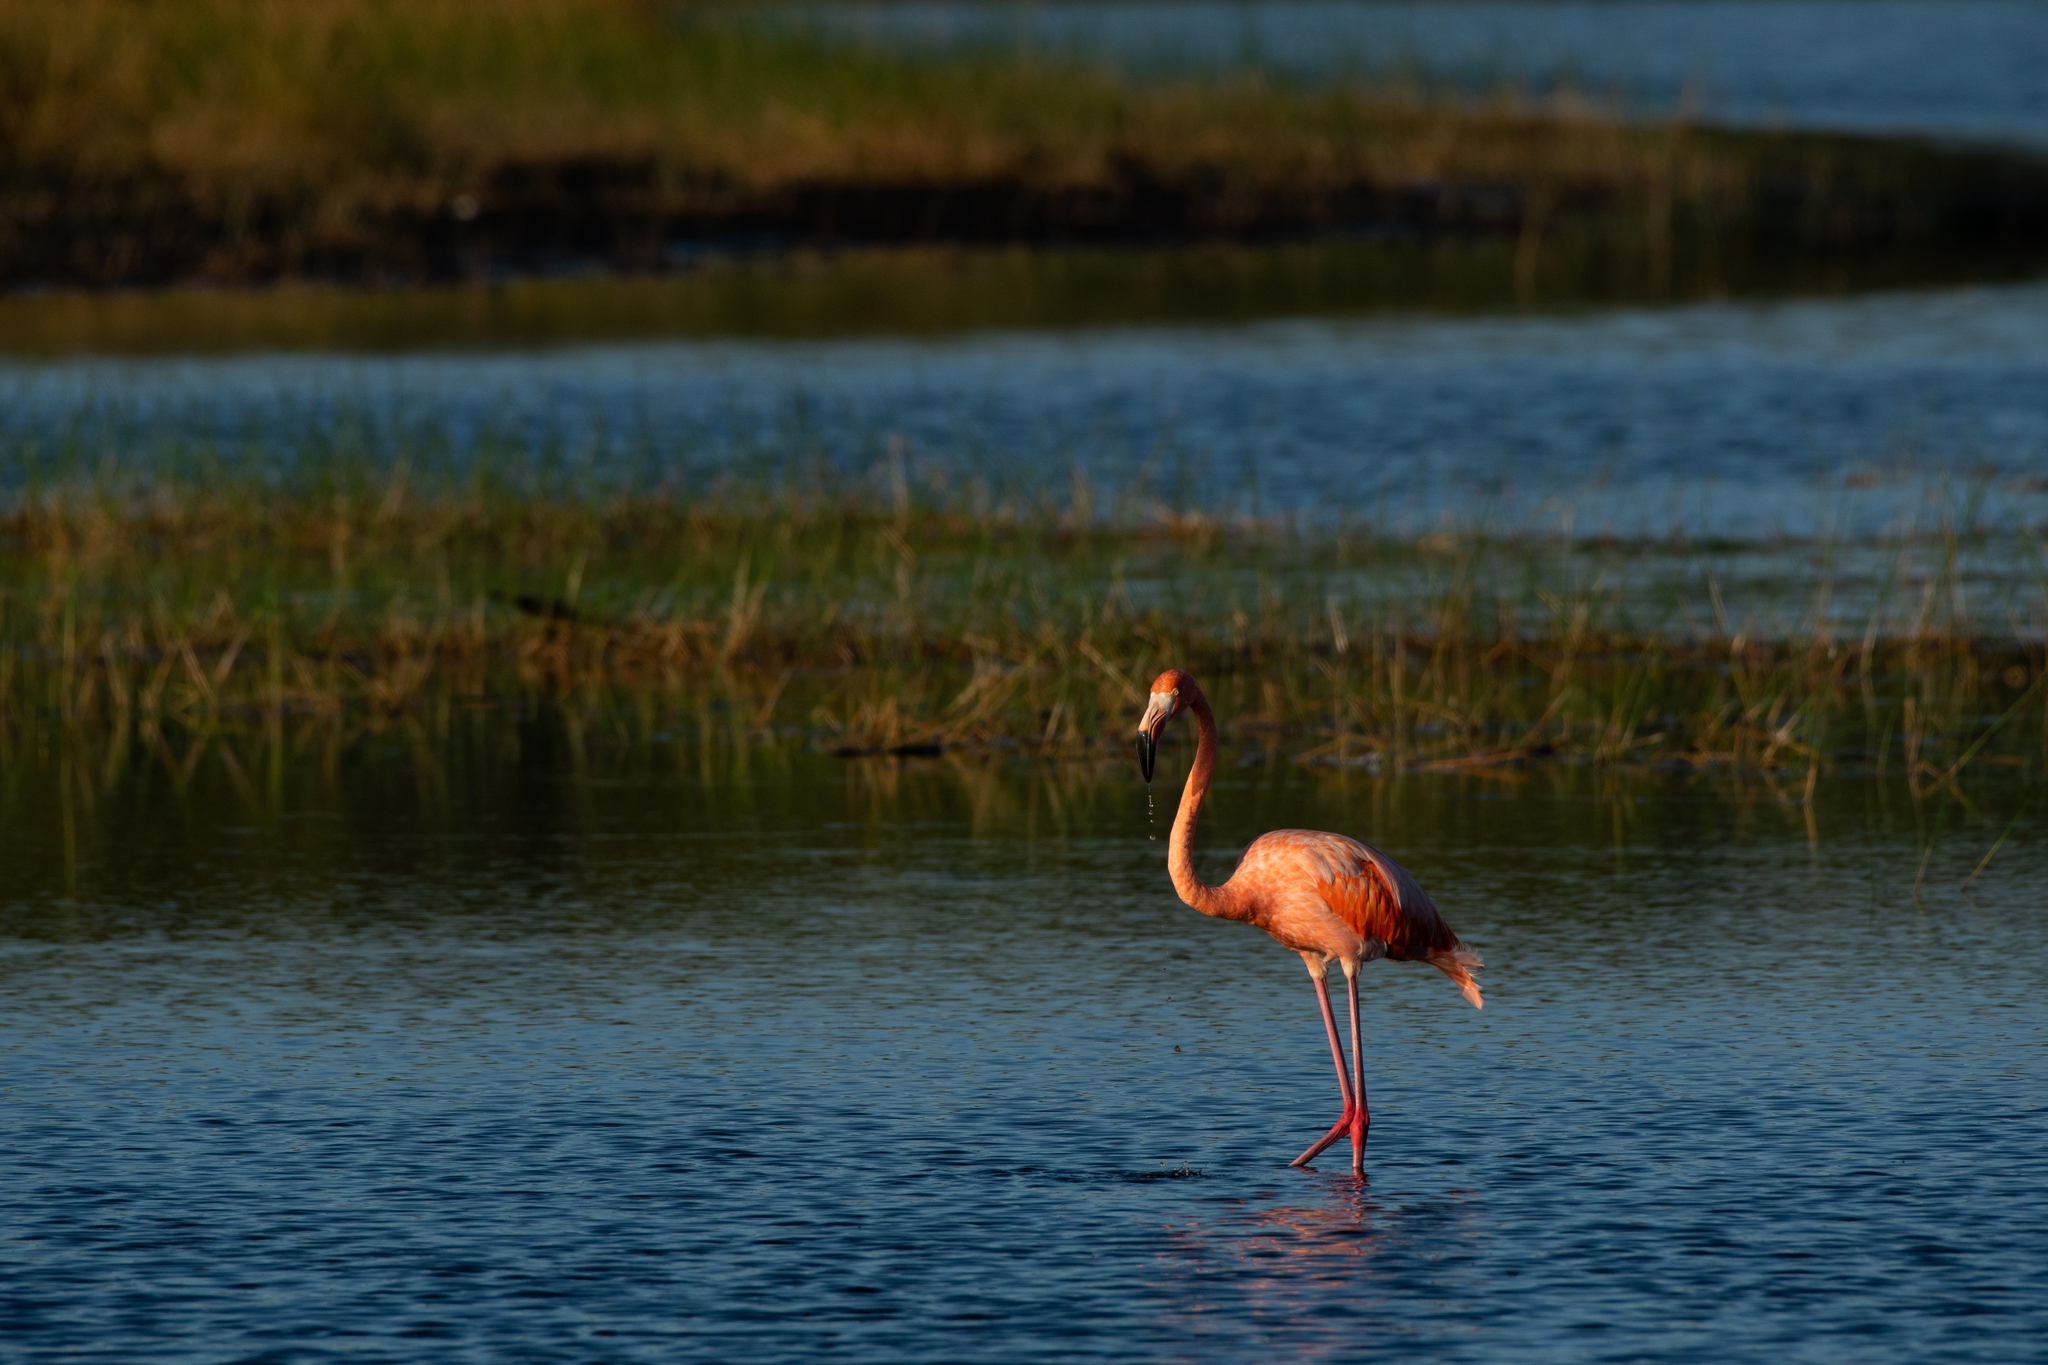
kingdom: Animalia
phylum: Chordata
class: Aves
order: Phoenicopteriformes
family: Phoenicopteridae
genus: Phoenicopterus
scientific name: Phoenicopterus ruber
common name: American flamingo
